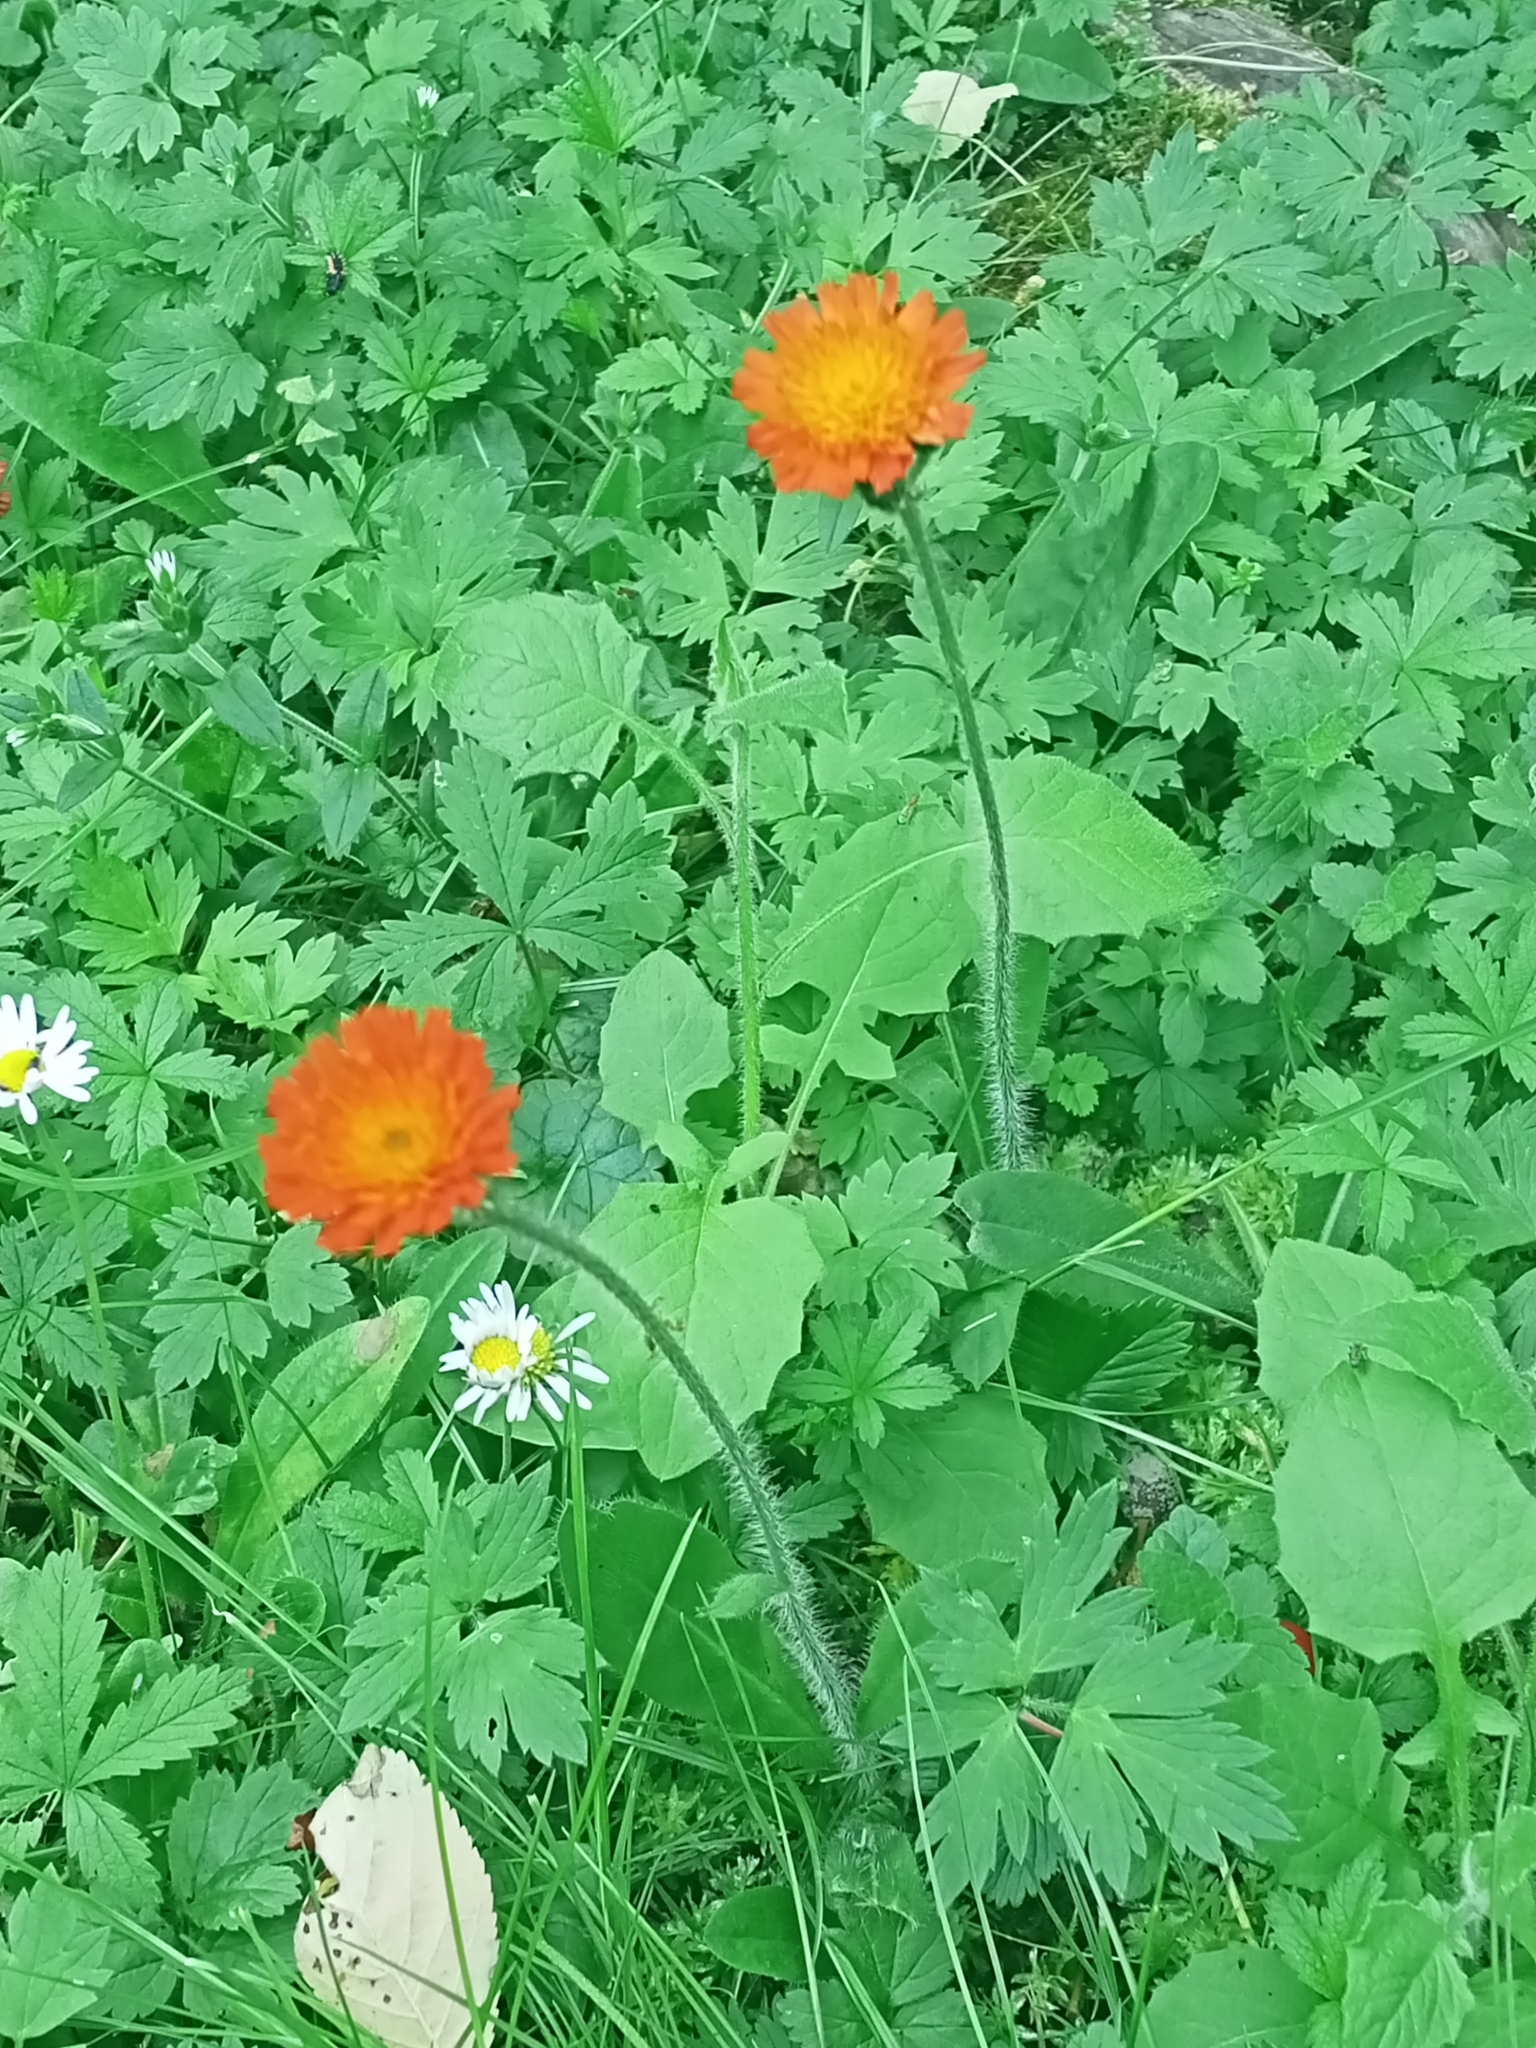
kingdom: Plantae
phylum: Tracheophyta
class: Magnoliopsida
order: Asterales
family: Asteraceae
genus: Pilosella
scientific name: Pilosella aurantiaca
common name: Fox-and-cubs
